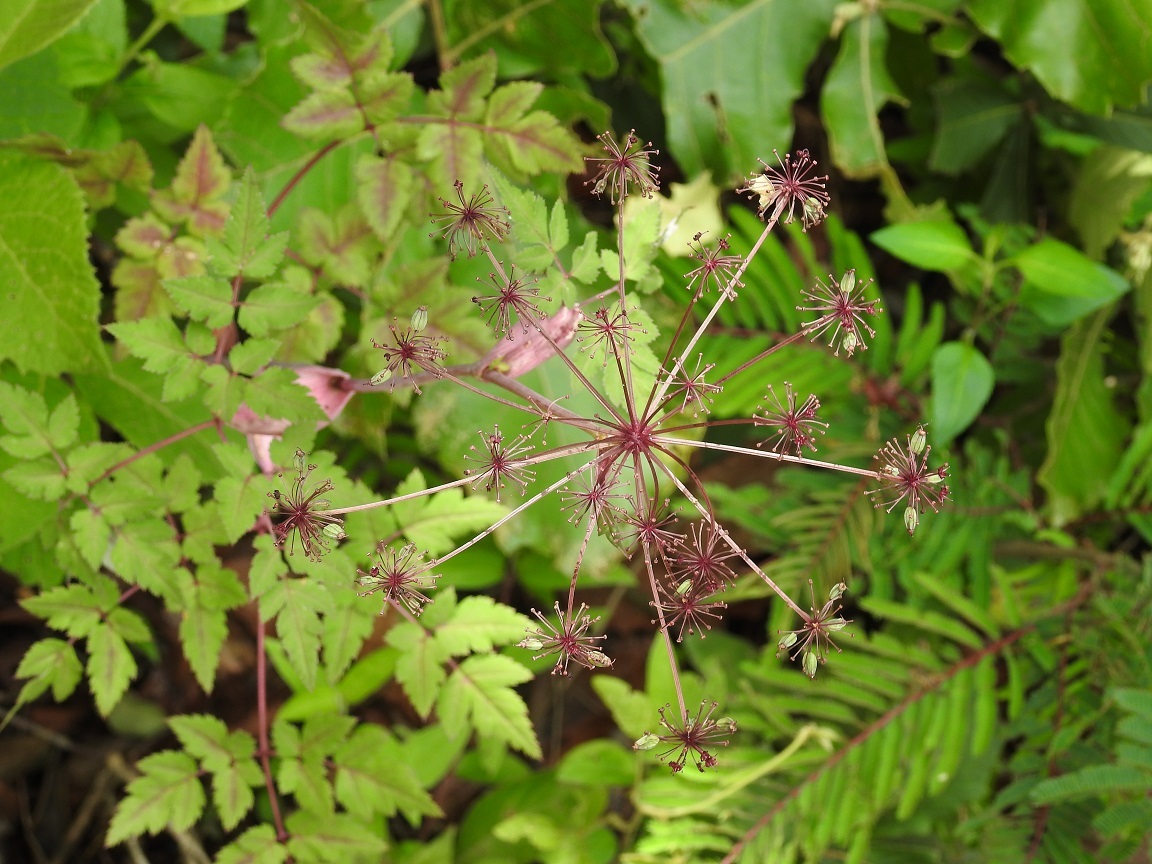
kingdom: Plantae
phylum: Tracheophyta
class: Magnoliopsida
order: Apiales
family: Apiaceae
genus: Arracacia
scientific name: Arracacia bracteata
